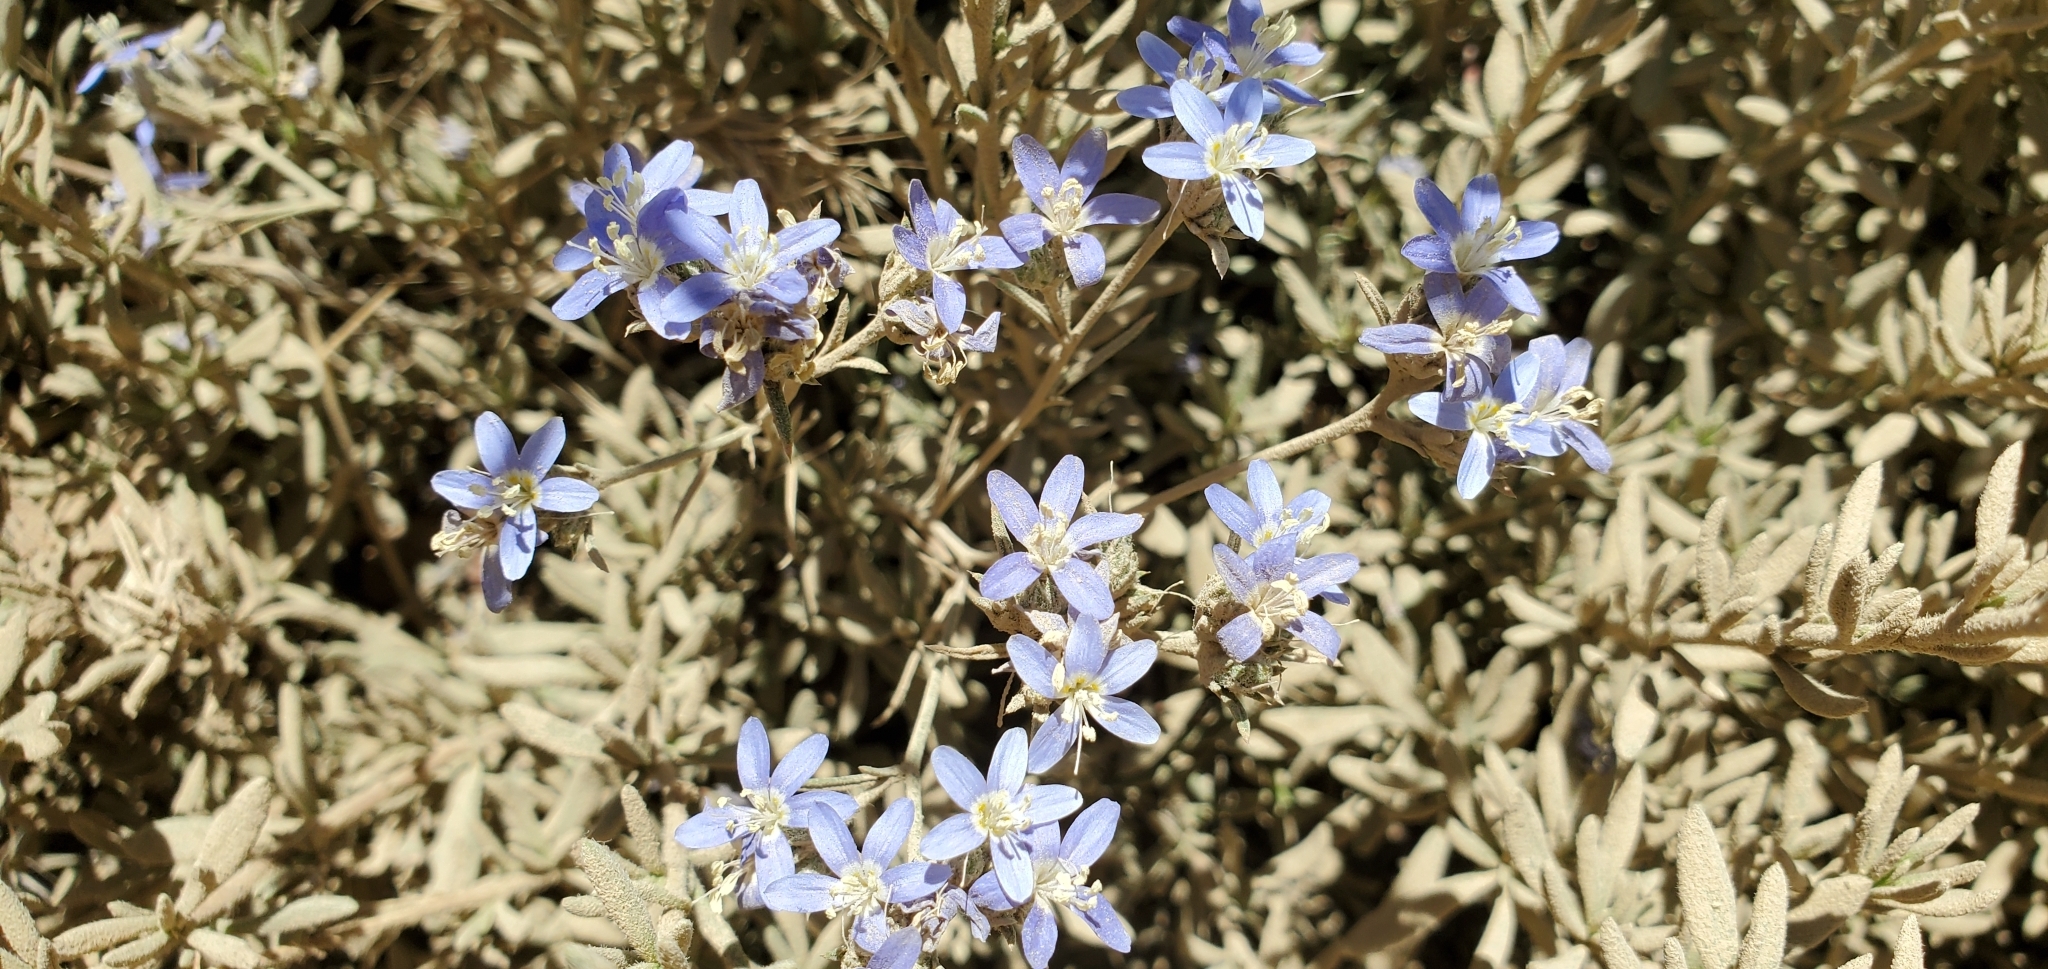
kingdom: Plantae
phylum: Tracheophyta
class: Magnoliopsida
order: Ericales
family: Polemoniaceae
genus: Eriastrum
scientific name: Eriastrum sapphirinum
